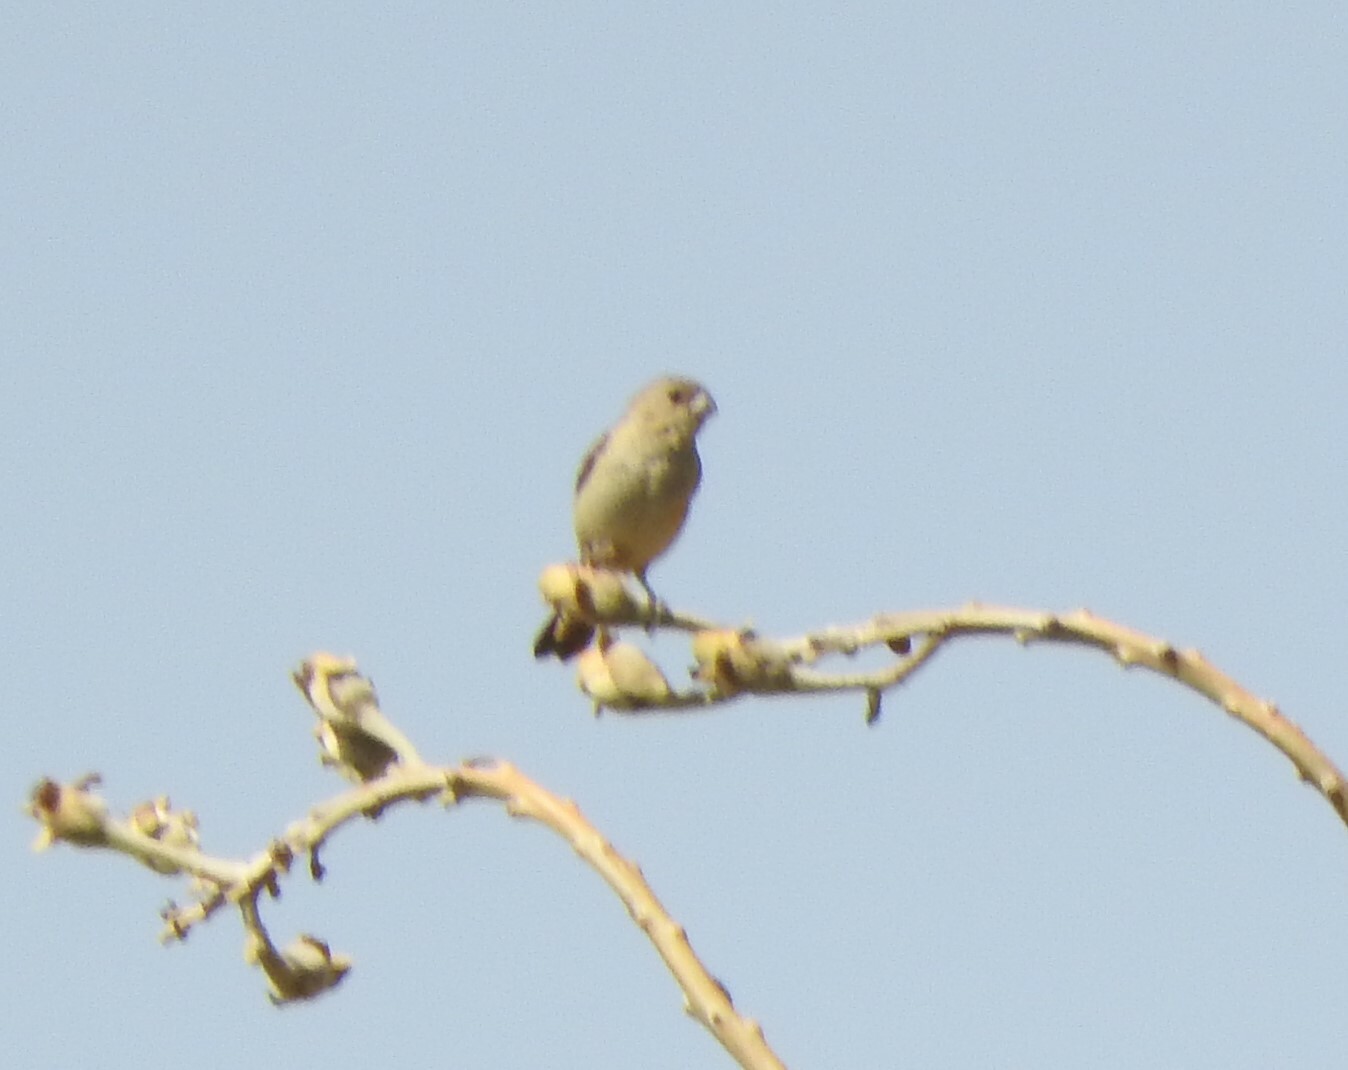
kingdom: Animalia
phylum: Chordata
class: Aves
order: Passeriformes
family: Thraupidae
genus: Sporophila
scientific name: Sporophila torqueola
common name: White-collared seedeater
